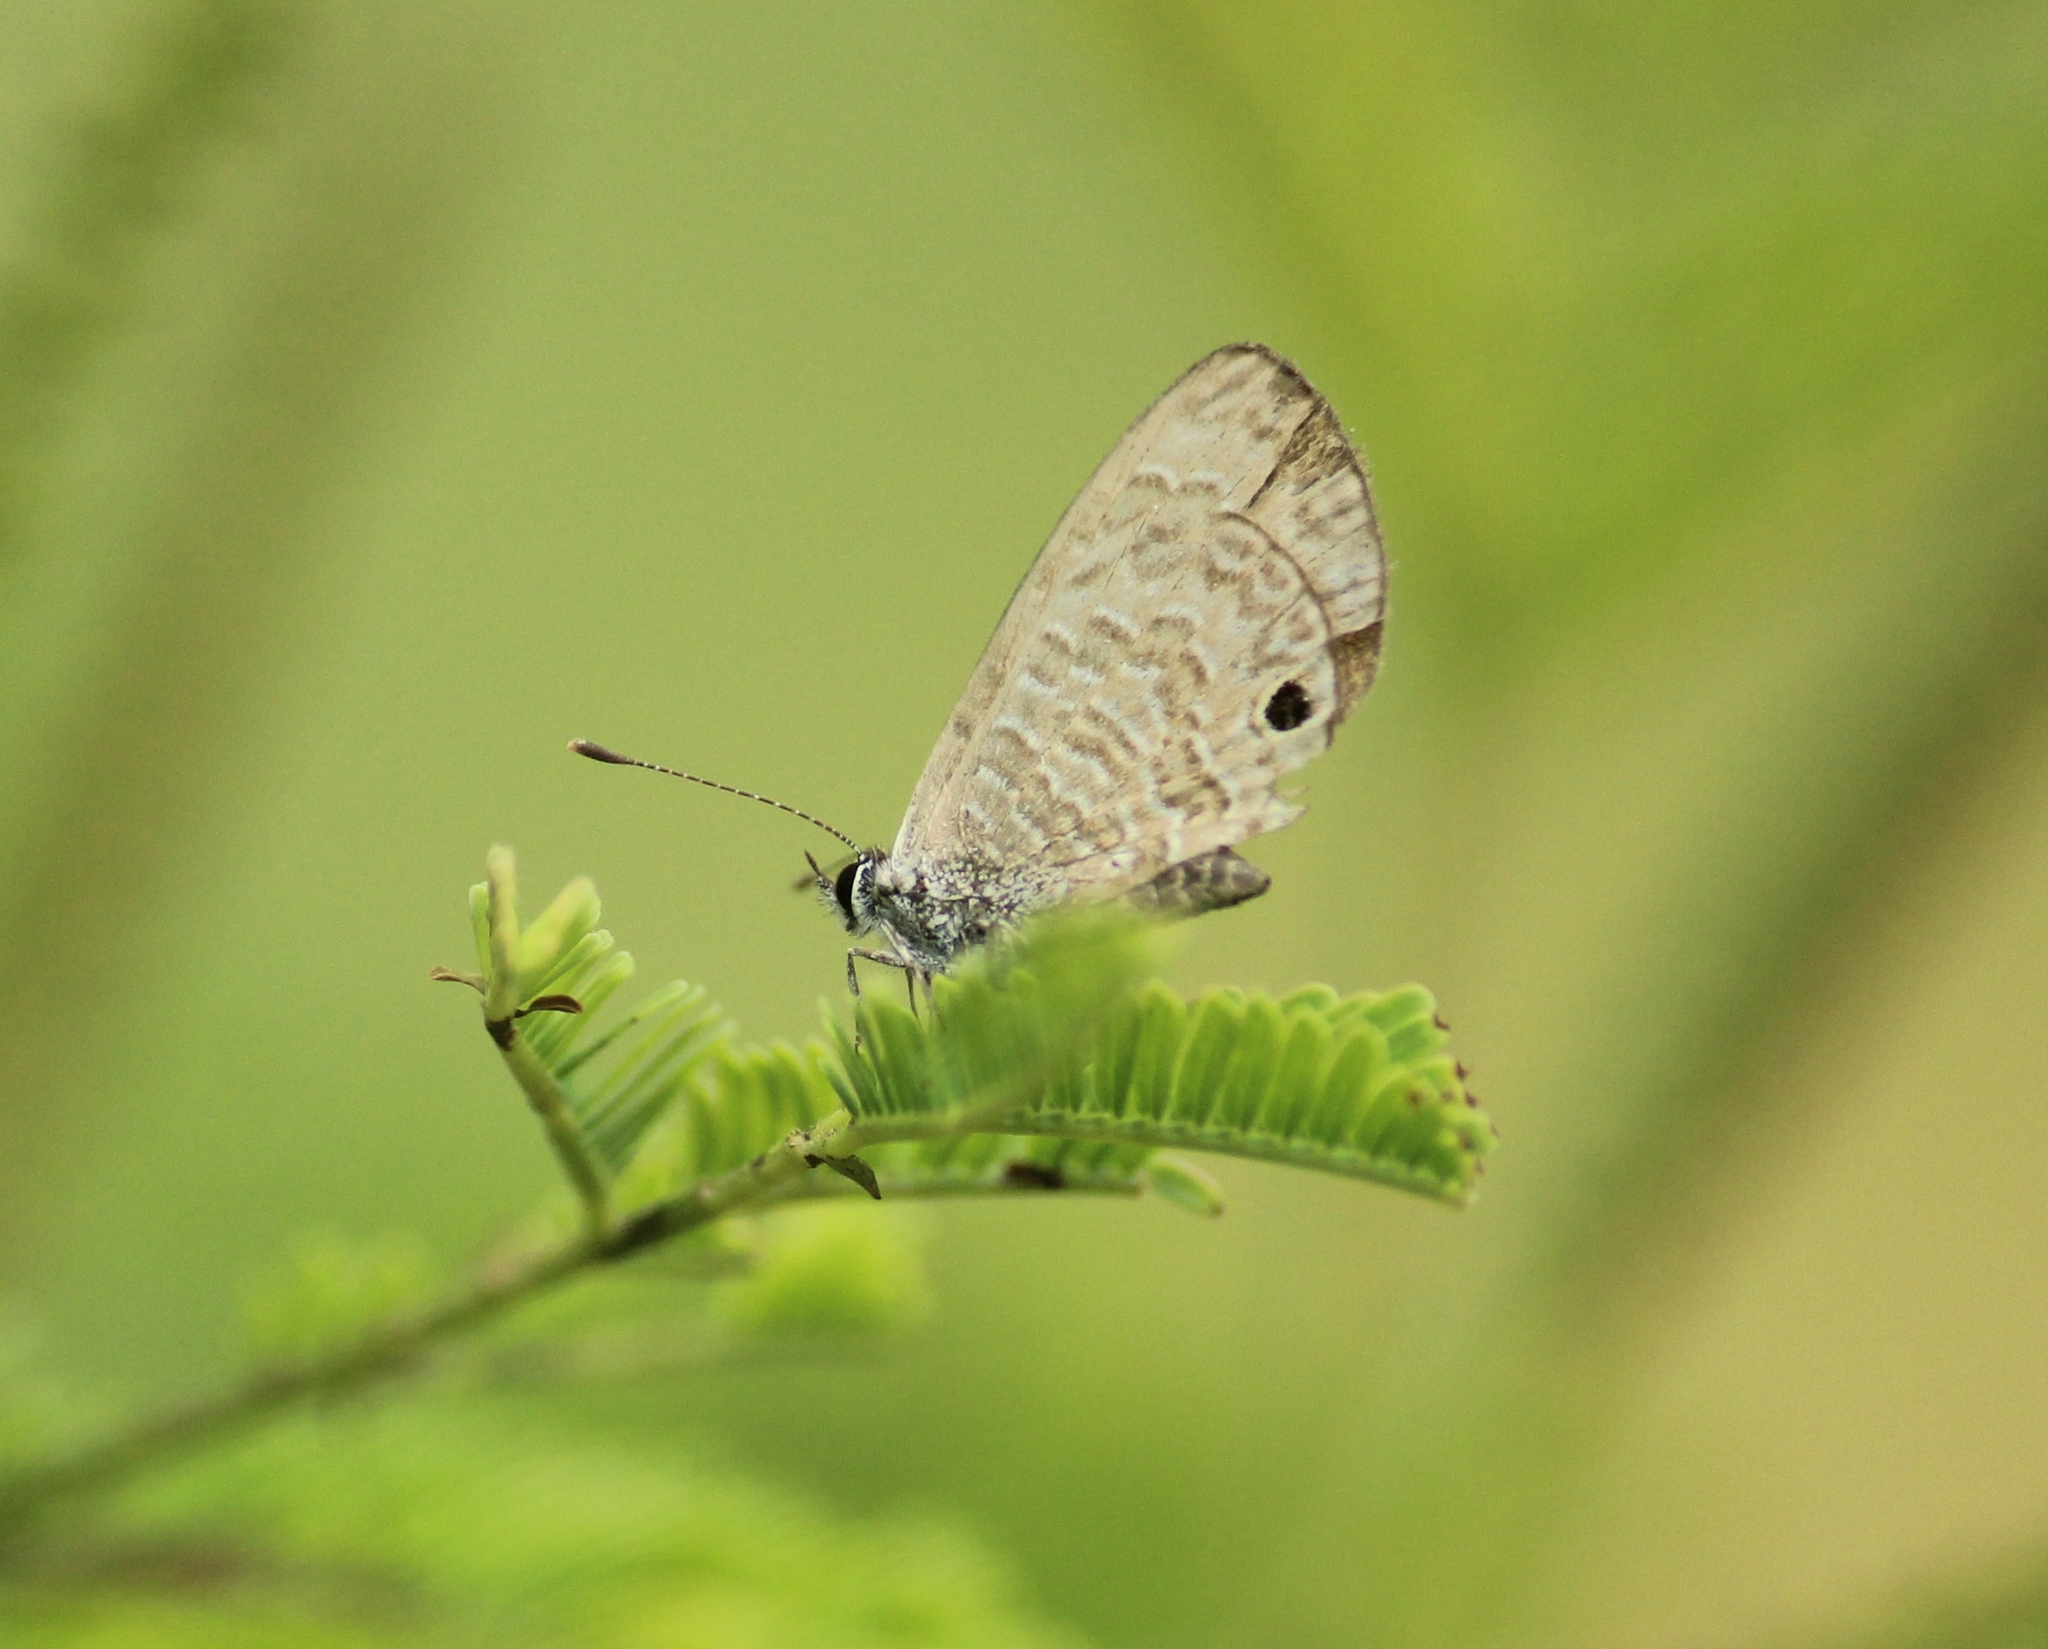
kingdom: Animalia
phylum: Arthropoda
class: Insecta
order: Lepidoptera
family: Lycaenidae
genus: Prosotas
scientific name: Prosotas nora
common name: Common line blue
